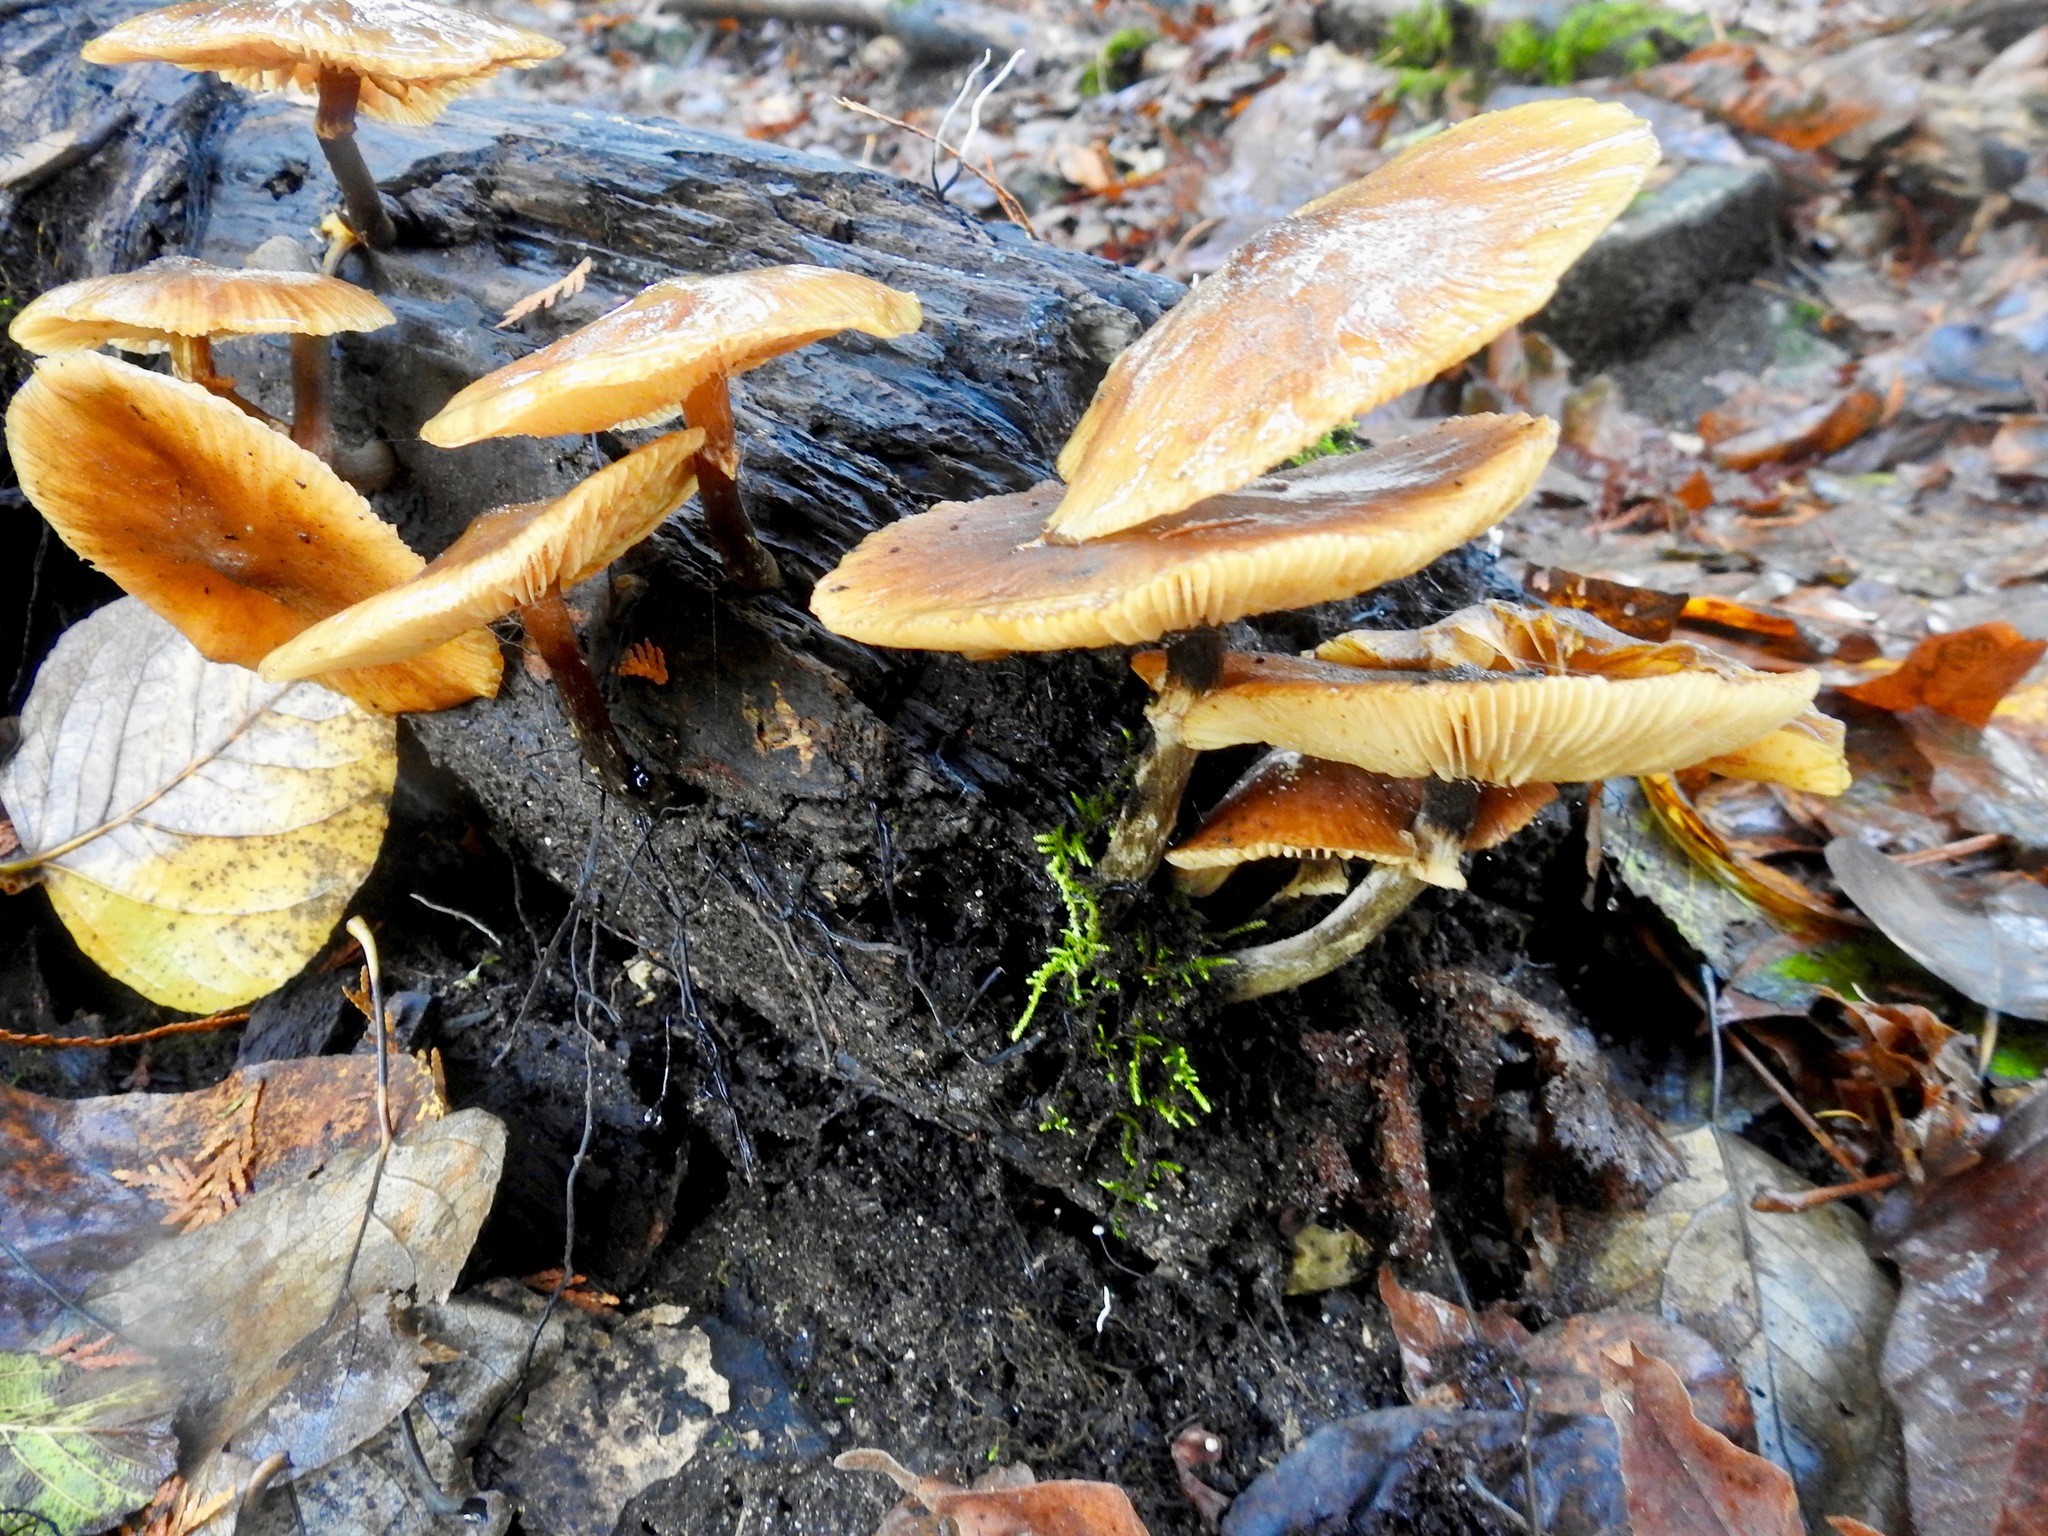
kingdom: Fungi
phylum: Basidiomycota
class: Agaricomycetes
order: Agaricales
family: Hymenogastraceae
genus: Galerina
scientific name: Galerina marginata
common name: Funeral bell
